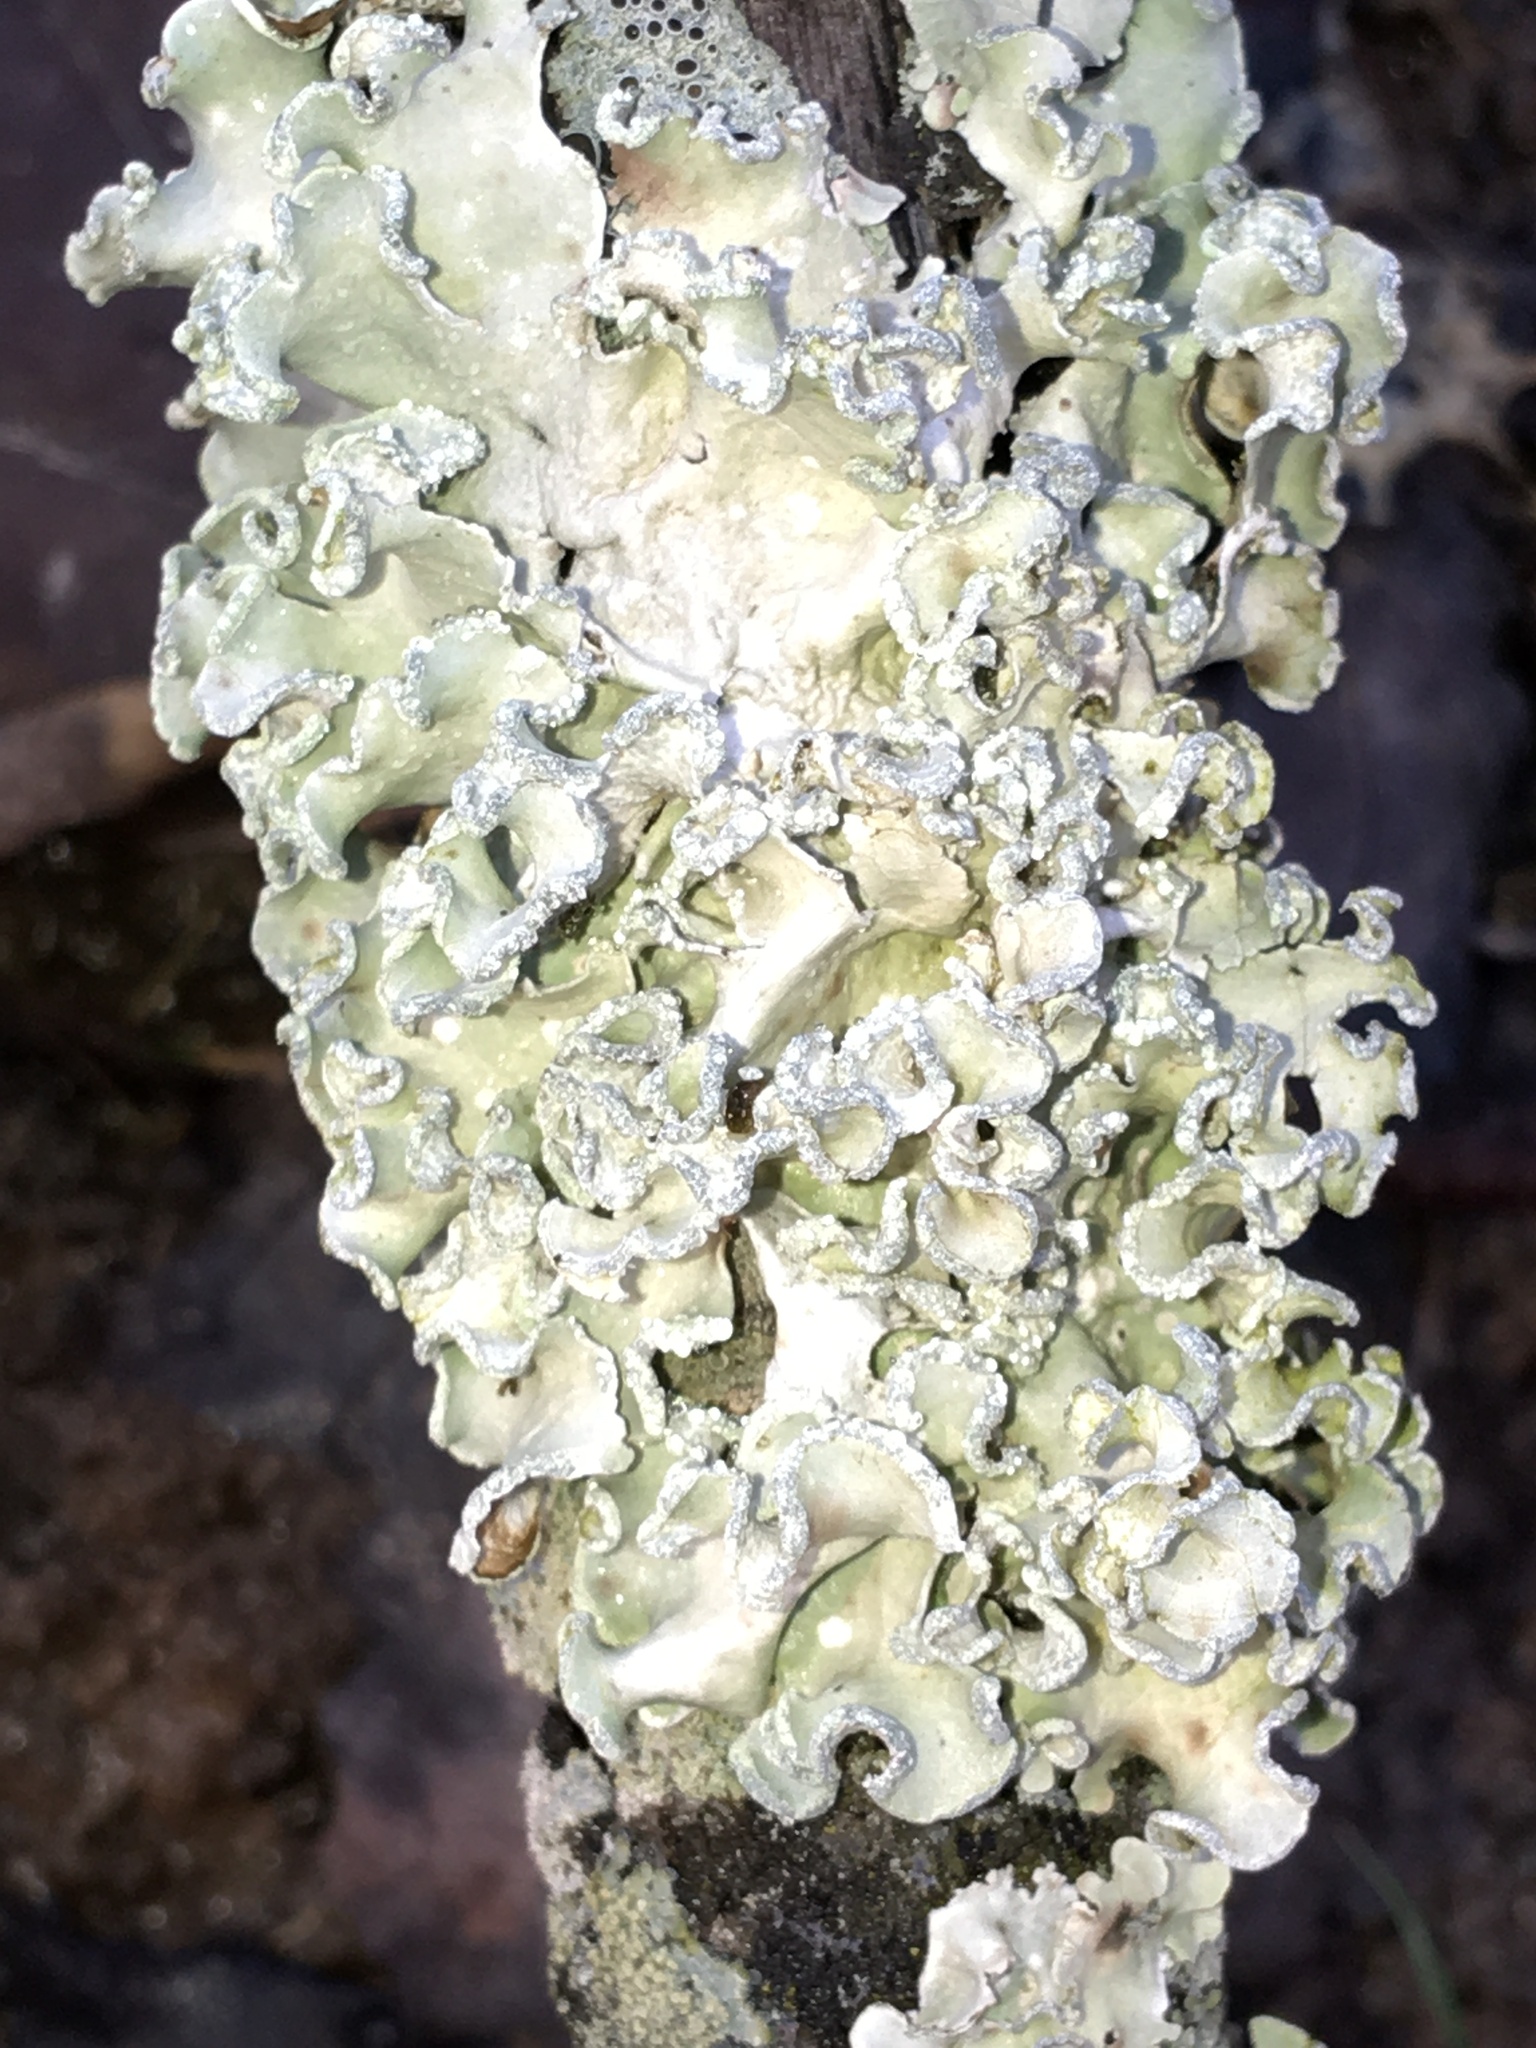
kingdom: Fungi
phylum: Ascomycota
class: Lecanoromycetes
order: Lecanorales
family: Parmeliaceae
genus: Parmotrema
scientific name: Parmotrema austrosinense
